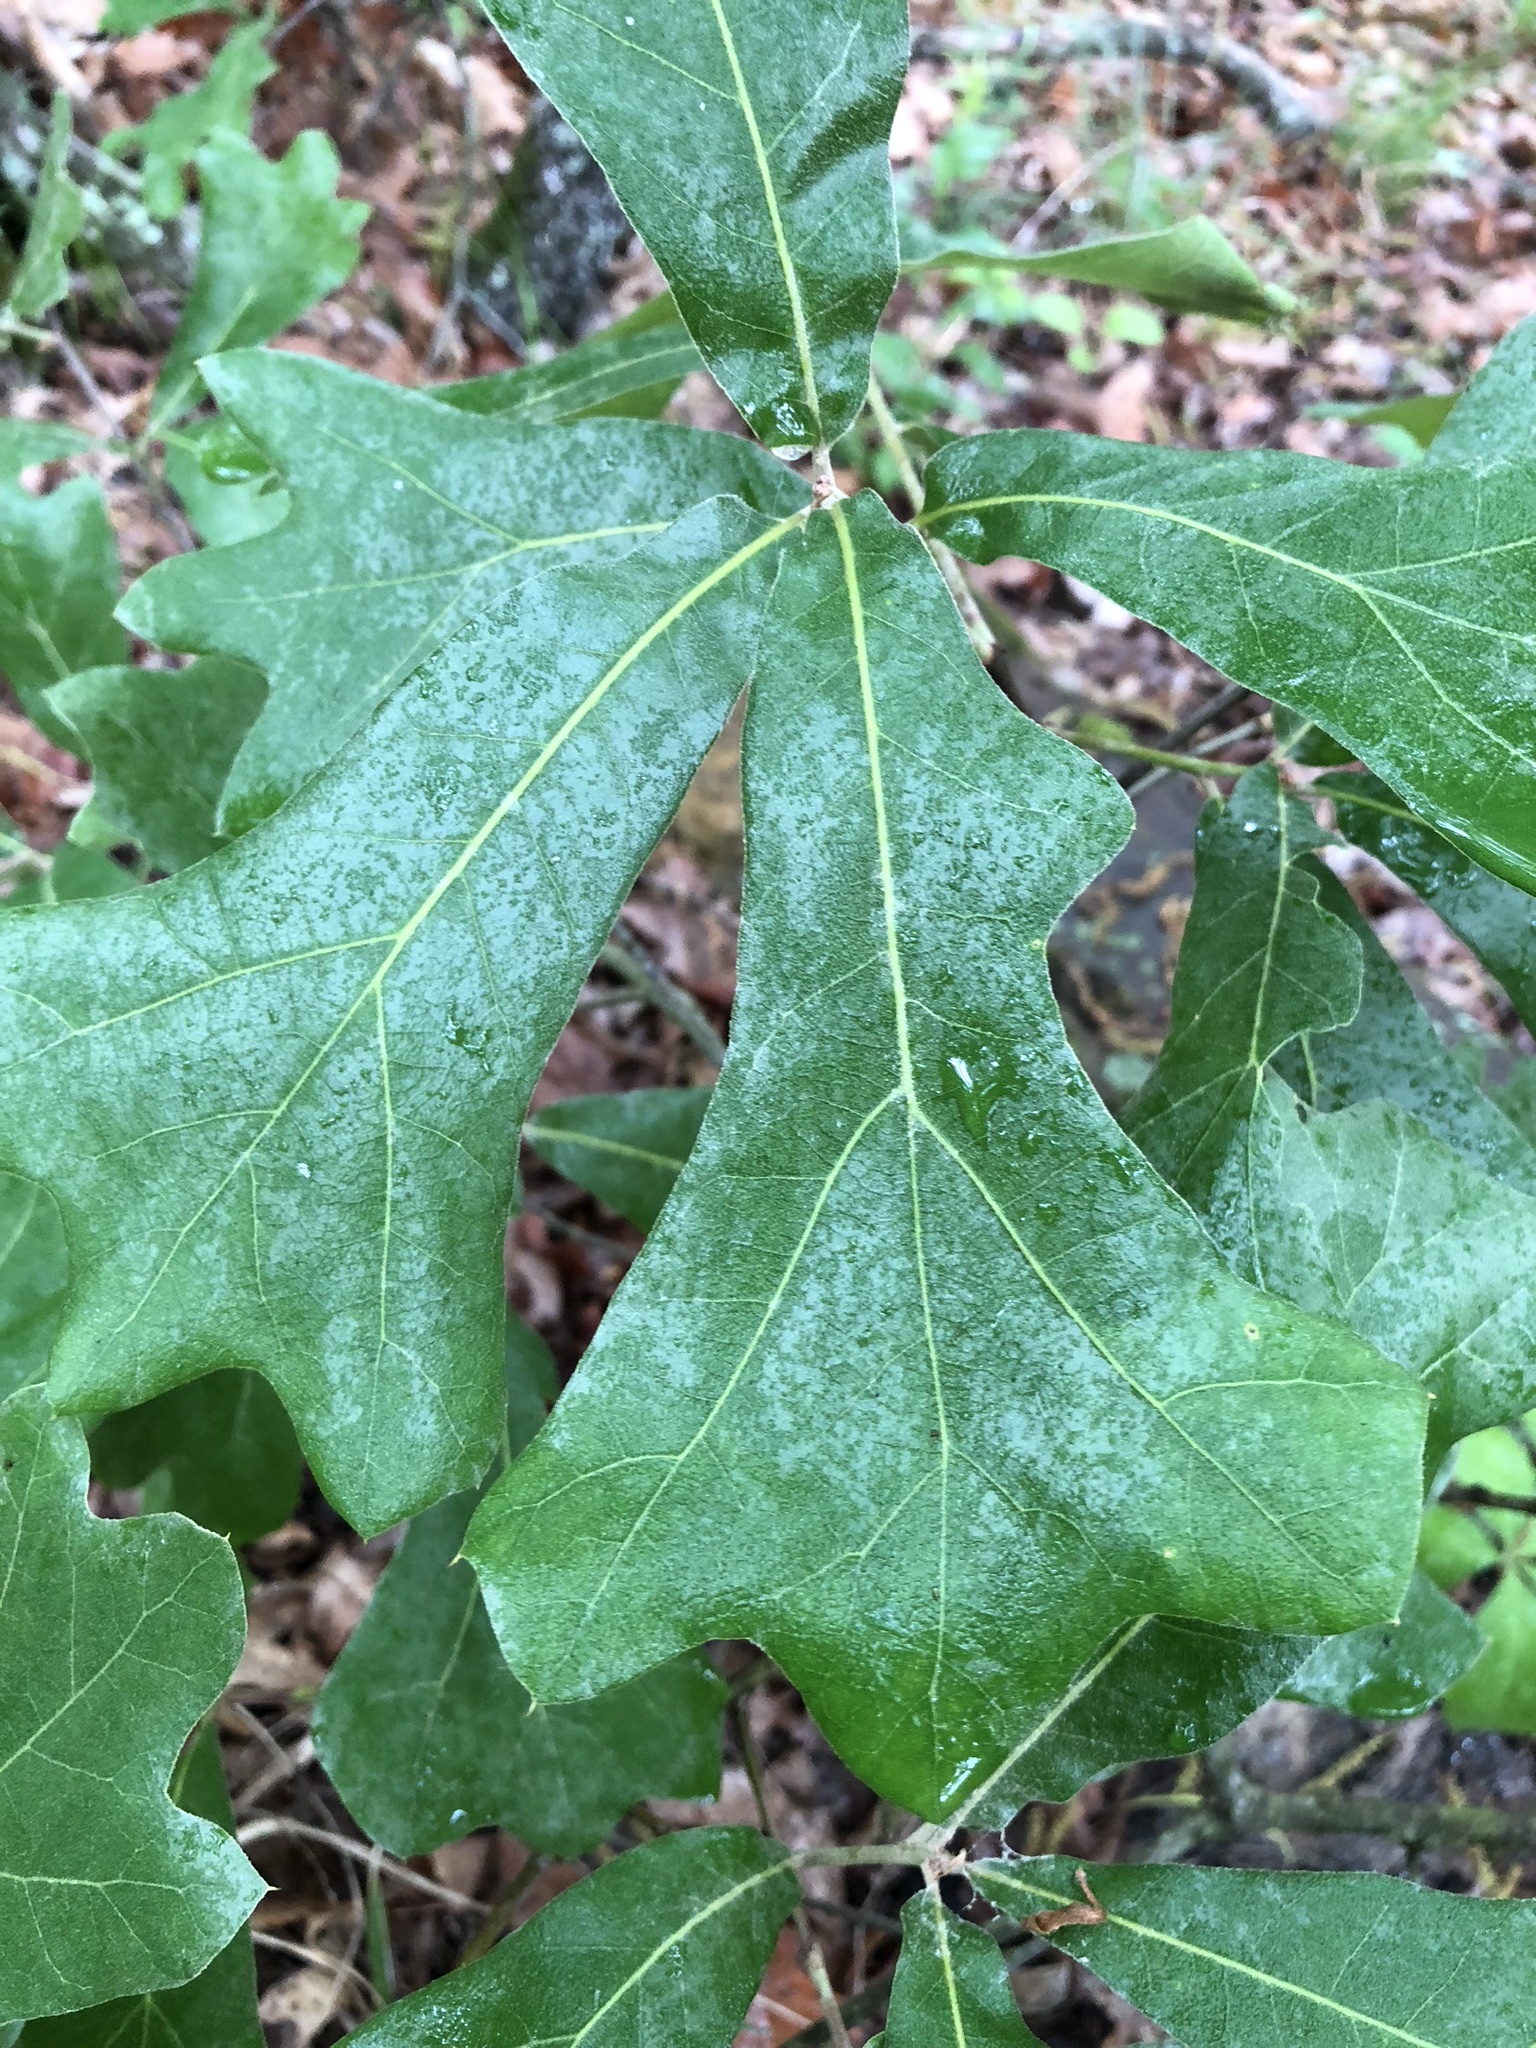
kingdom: Plantae
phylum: Tracheophyta
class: Magnoliopsida
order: Fagales
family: Fagaceae
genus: Quercus
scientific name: Quercus marilandica
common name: Blackjack oak
